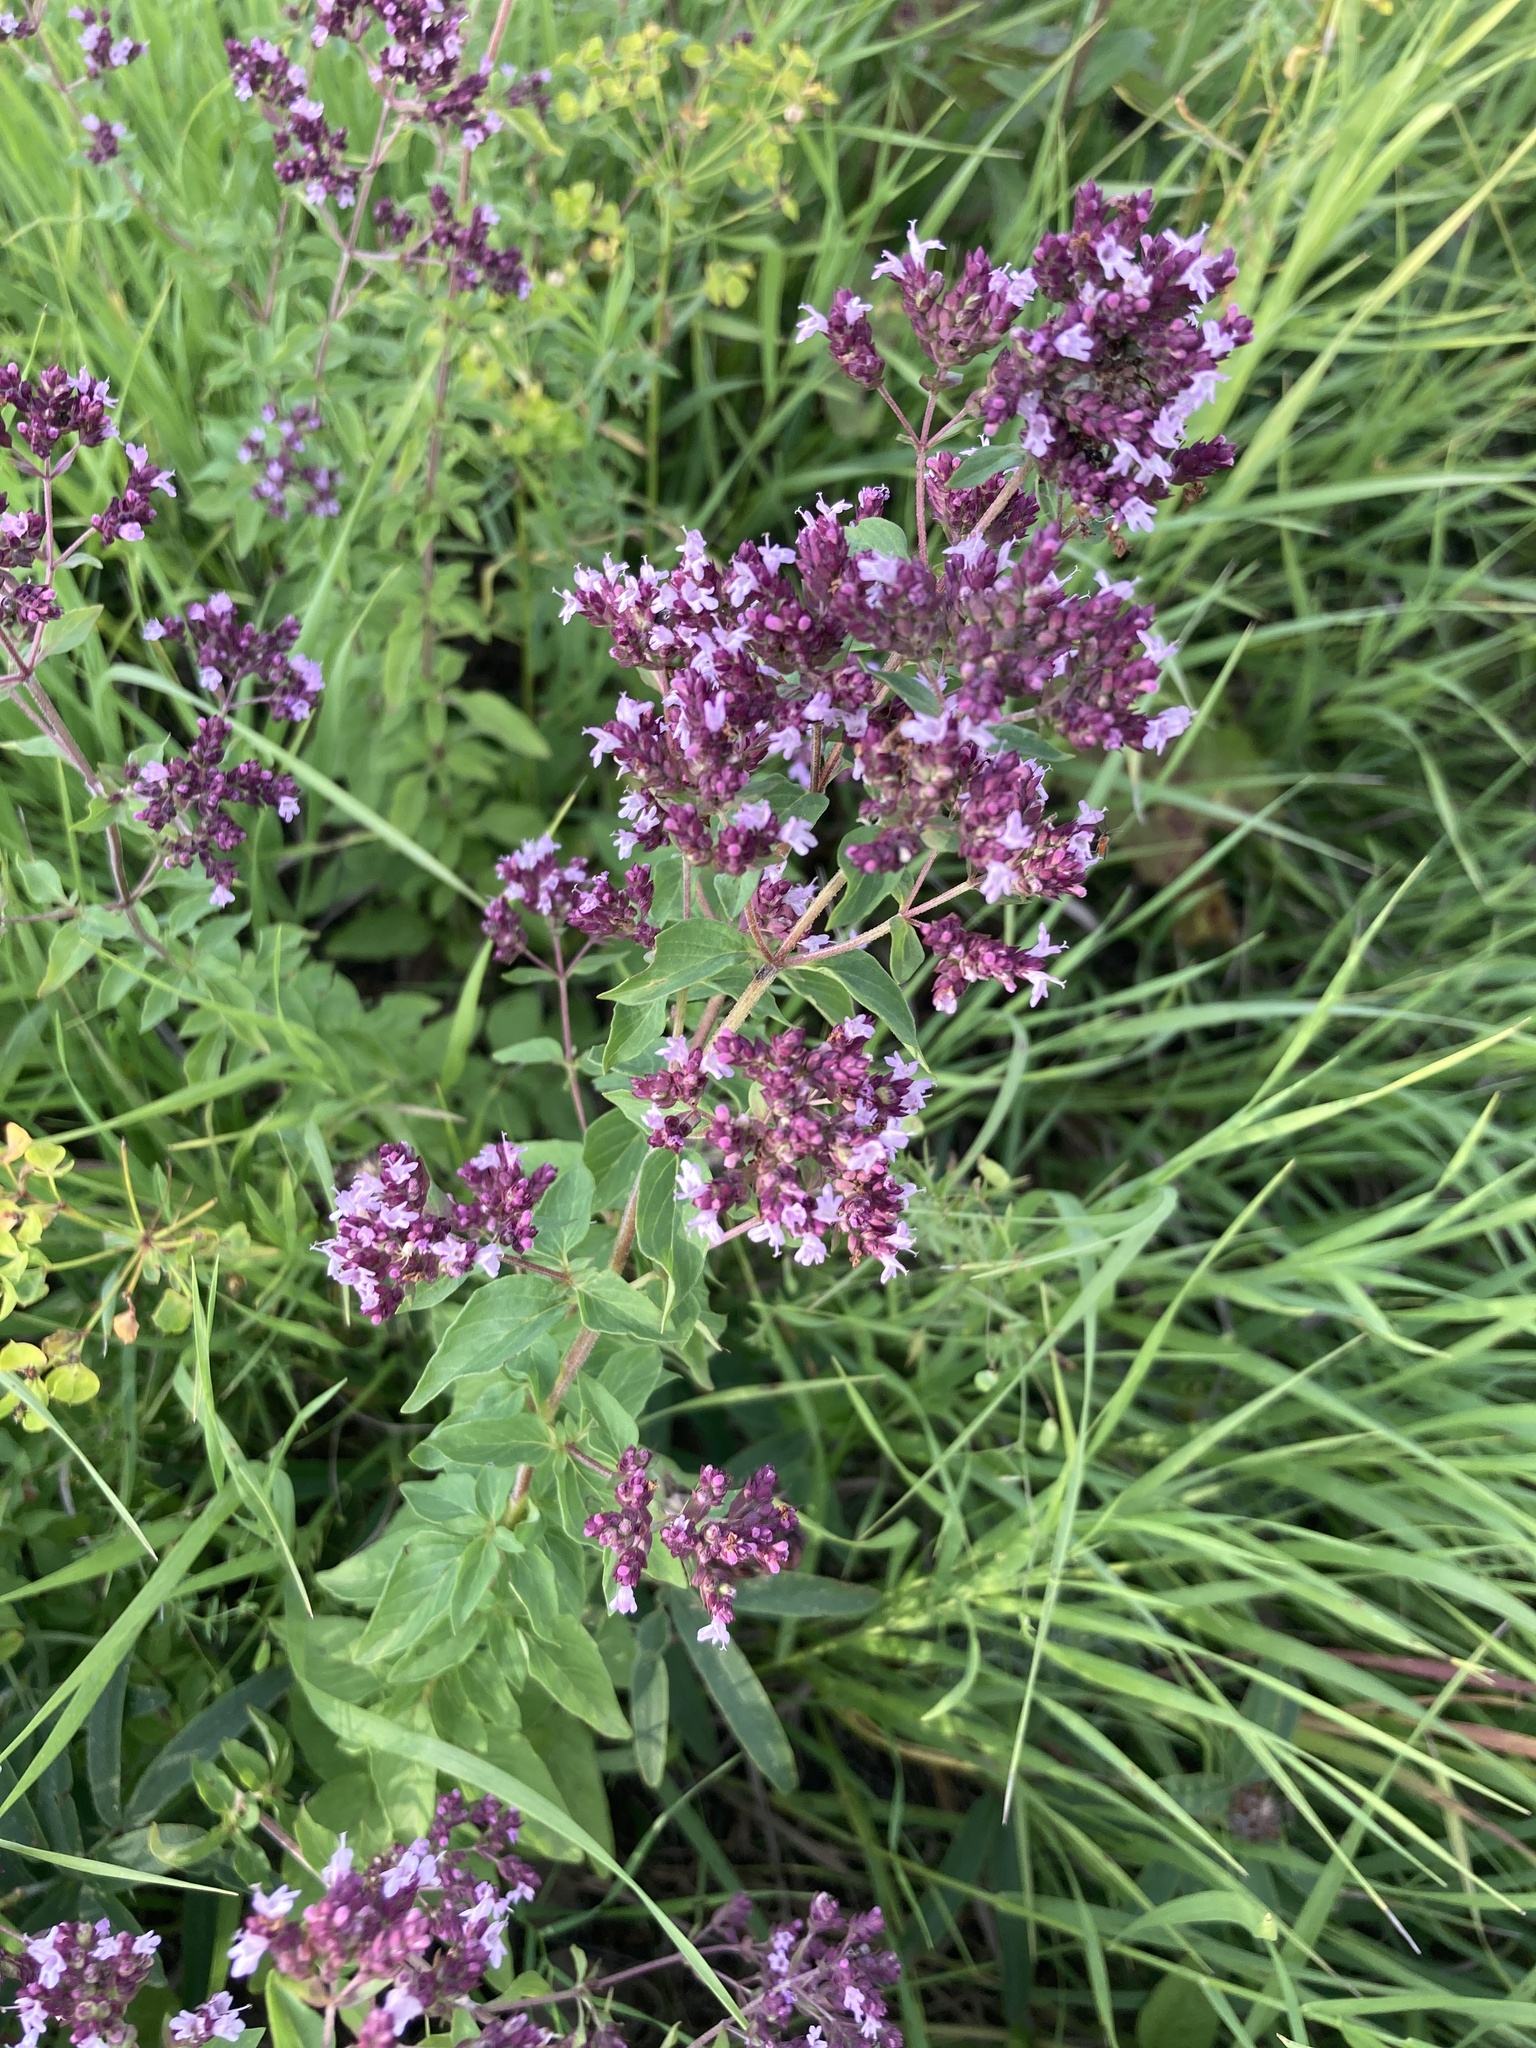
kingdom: Plantae
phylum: Tracheophyta
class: Magnoliopsida
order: Lamiales
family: Lamiaceae
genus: Origanum
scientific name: Origanum vulgare
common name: Wild marjoram
